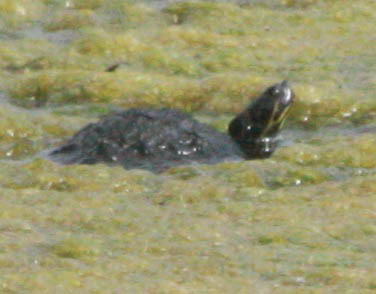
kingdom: Animalia
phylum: Chordata
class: Testudines
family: Emydidae
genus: Trachemys
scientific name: Trachemys scripta
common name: Slider
